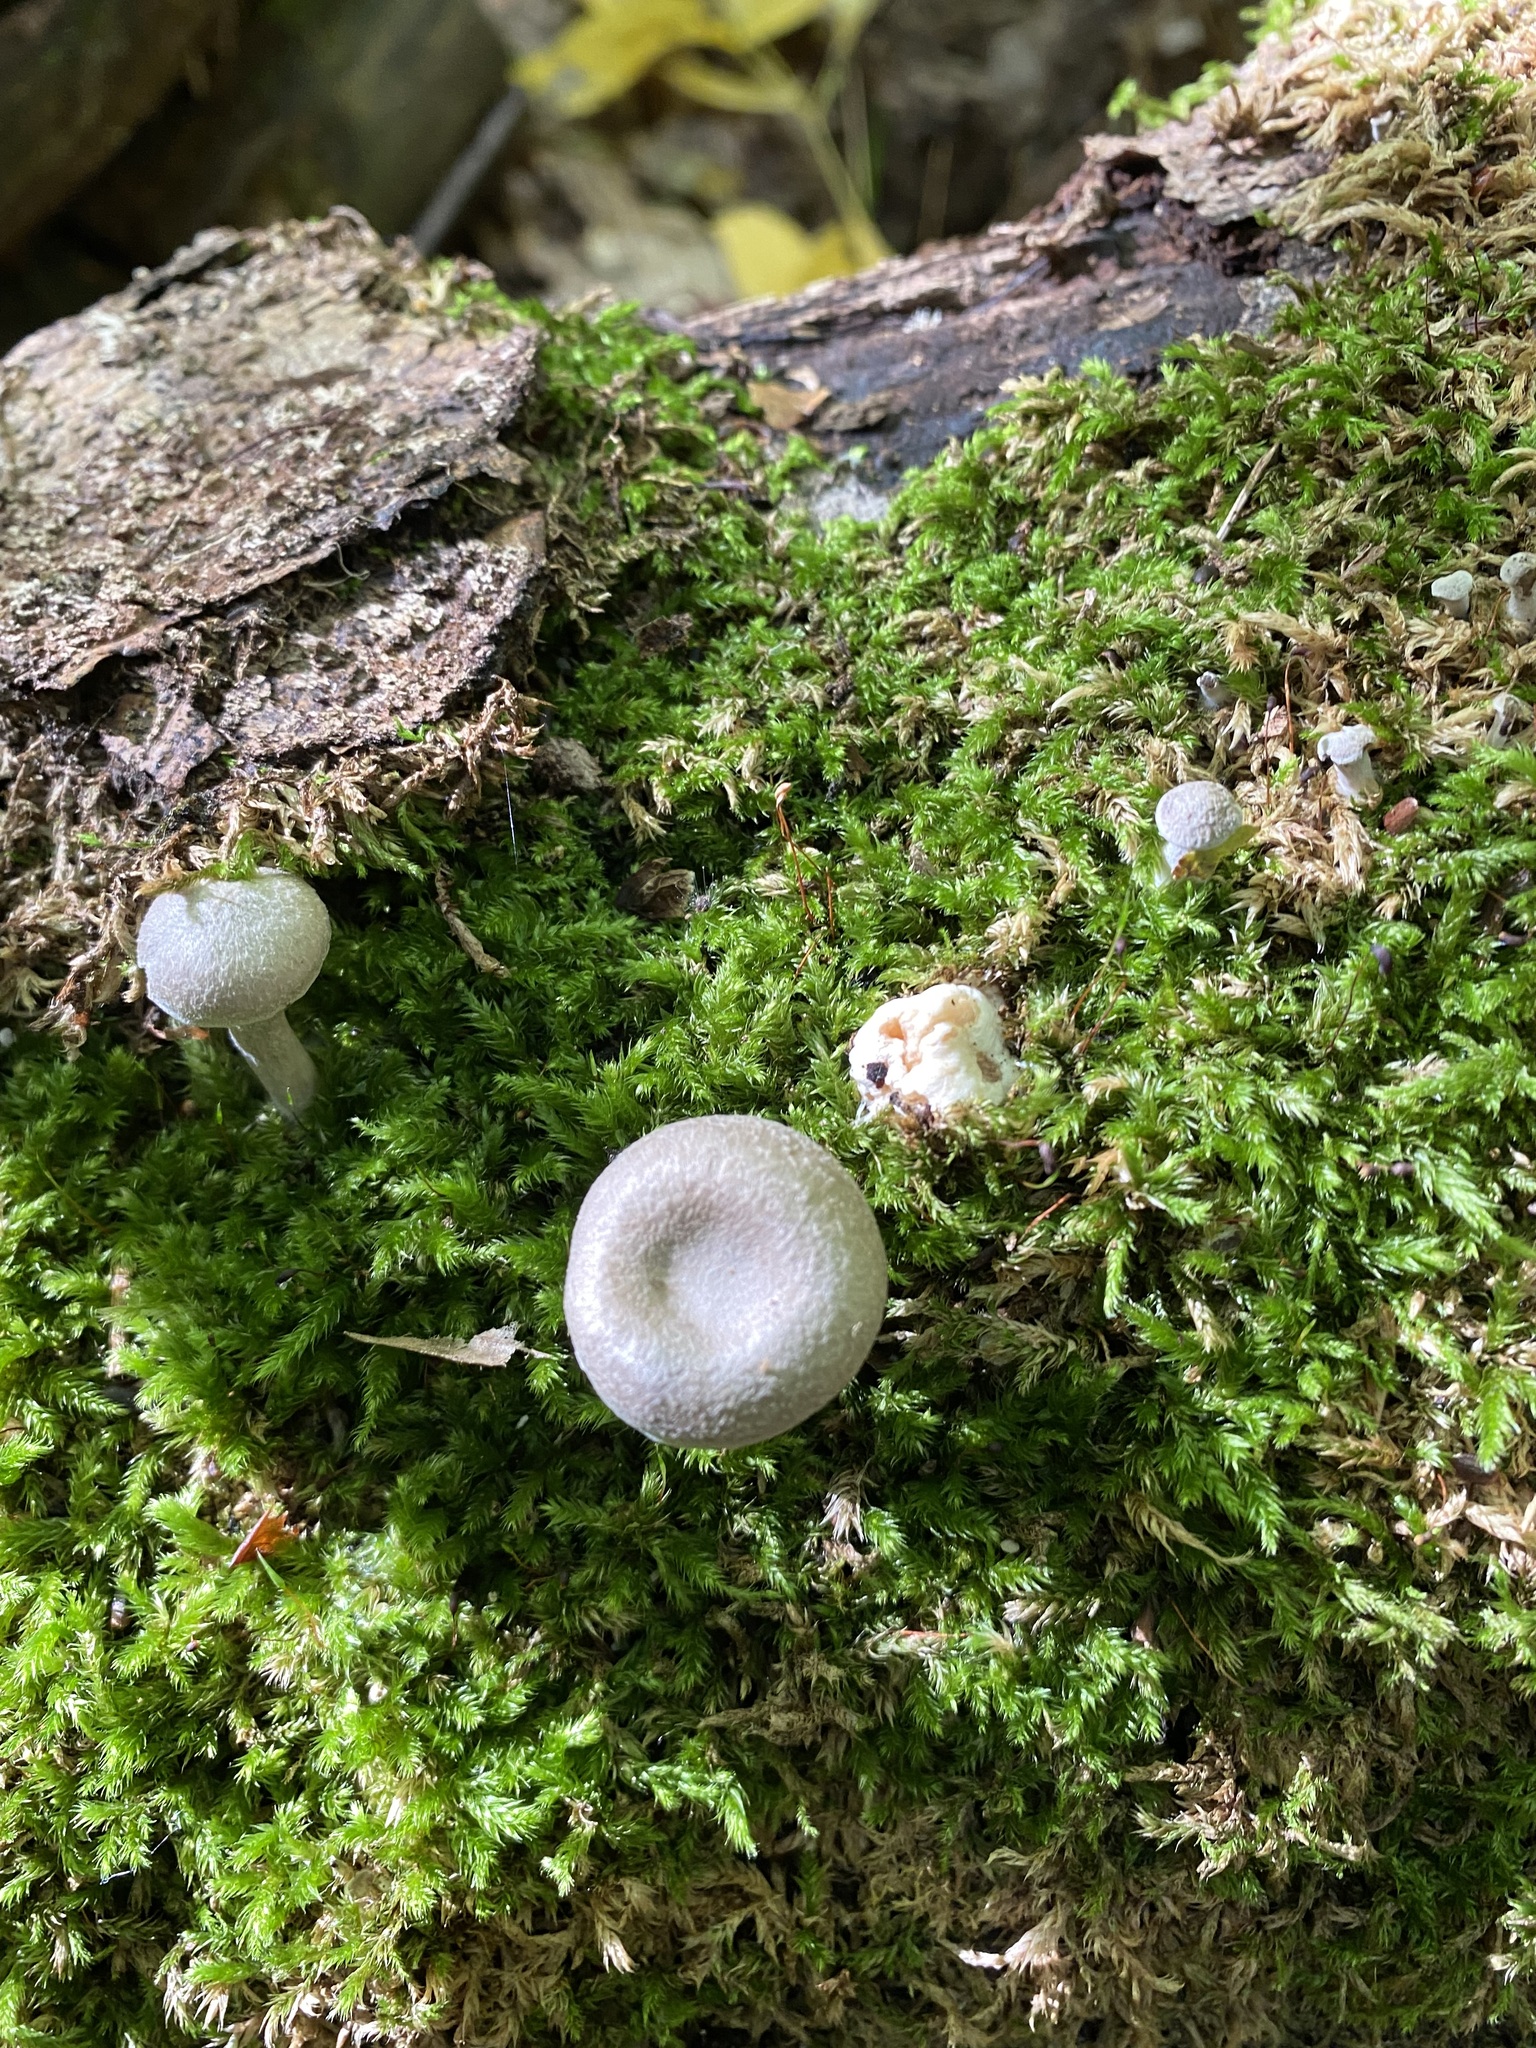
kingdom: Fungi
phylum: Basidiomycota
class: Agaricomycetes
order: Agaricales
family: Entolomataceae
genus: Entoloma
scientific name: Entoloma abortivum
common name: Aborted entoloma
